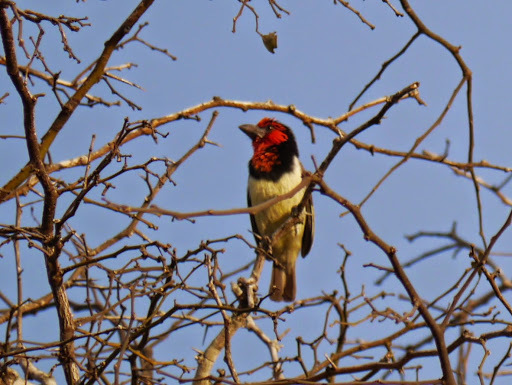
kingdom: Animalia
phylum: Chordata
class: Aves
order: Piciformes
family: Lybiidae
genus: Lybius
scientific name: Lybius torquatus
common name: Black-collared barbet
